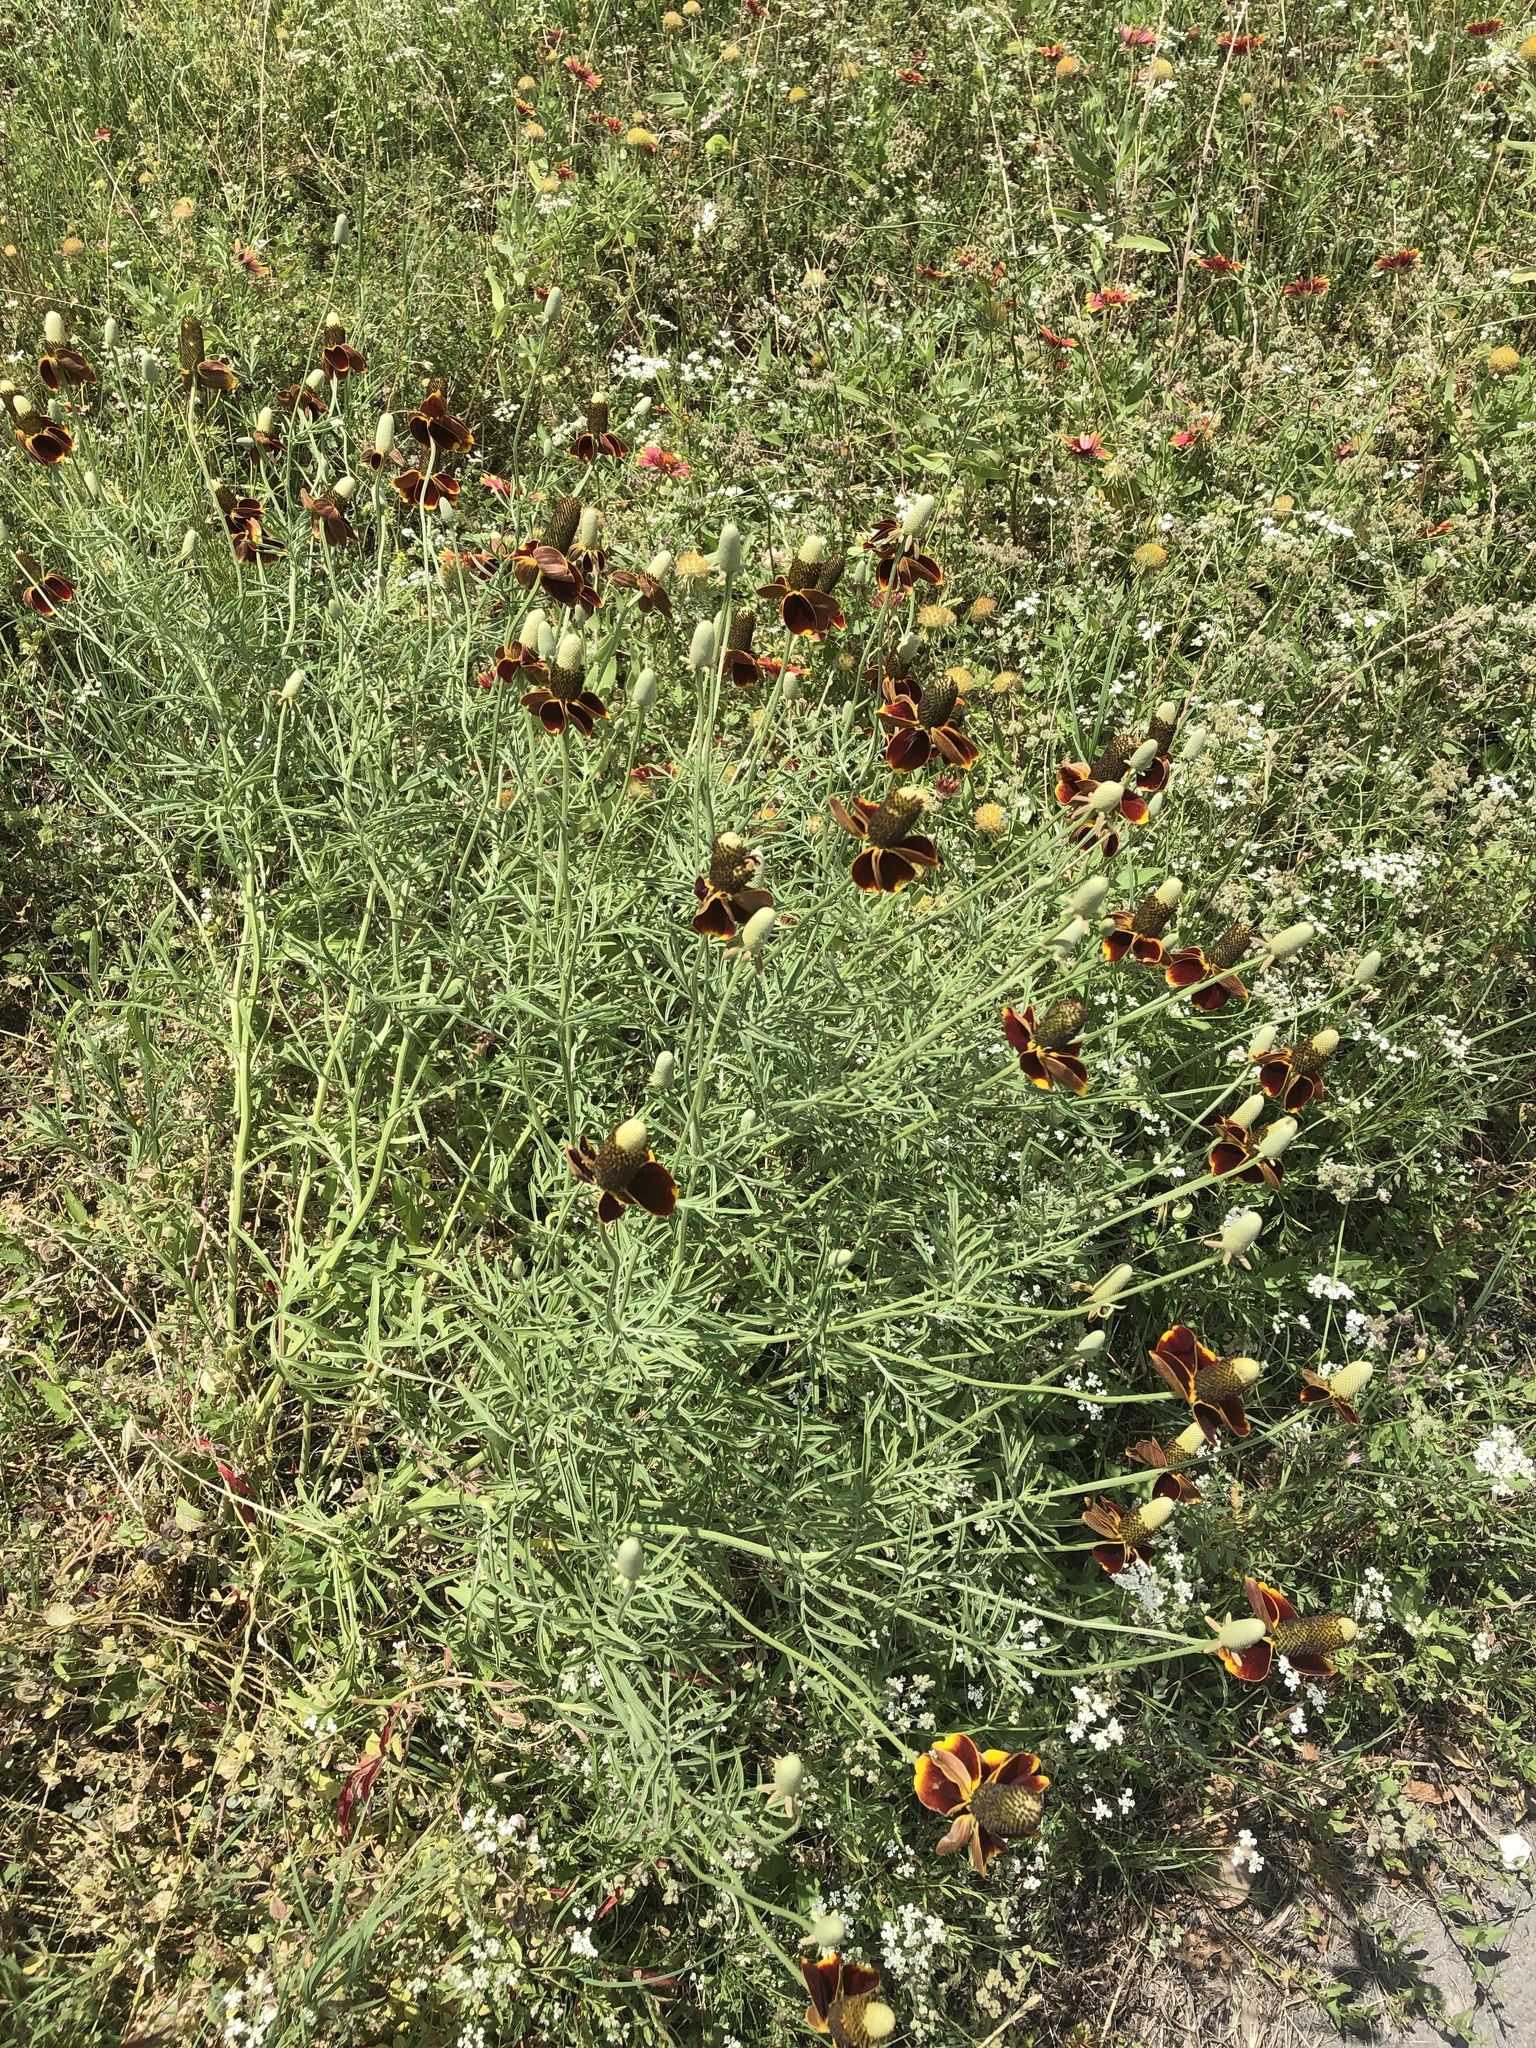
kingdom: Plantae
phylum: Tracheophyta
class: Magnoliopsida
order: Asterales
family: Asteraceae
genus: Ratibida
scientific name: Ratibida columnifera
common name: Prairie coneflower
